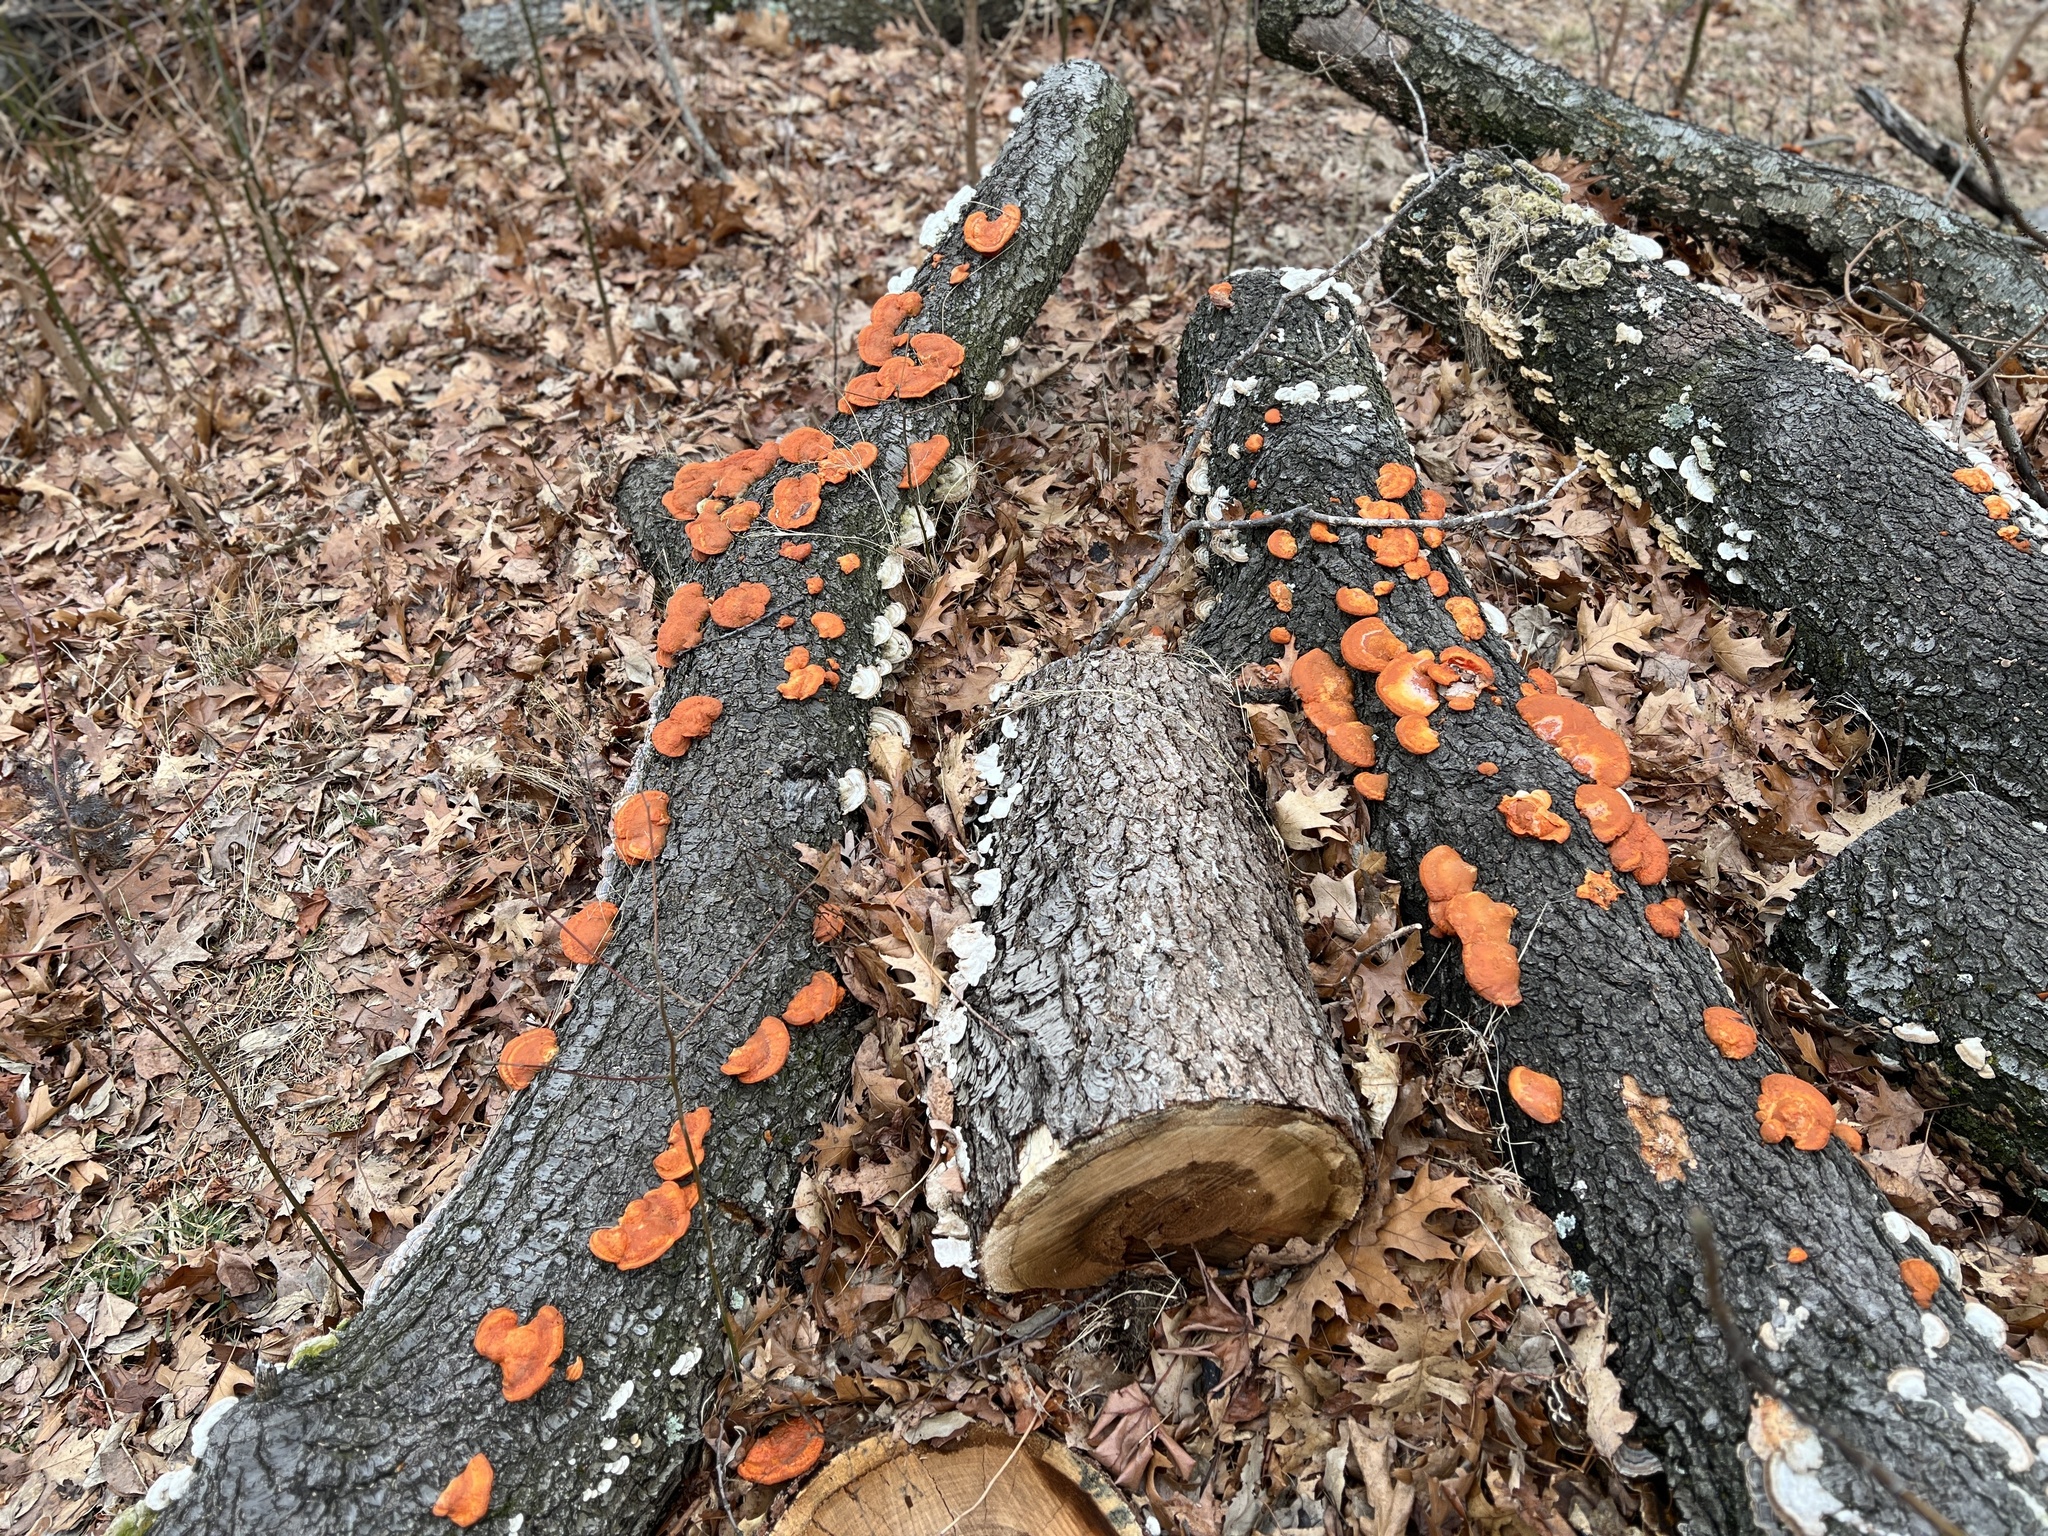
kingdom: Fungi
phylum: Basidiomycota
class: Agaricomycetes
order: Polyporales
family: Polyporaceae
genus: Trametes
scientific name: Trametes cinnabarina
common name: Northern cinnabar polypore
